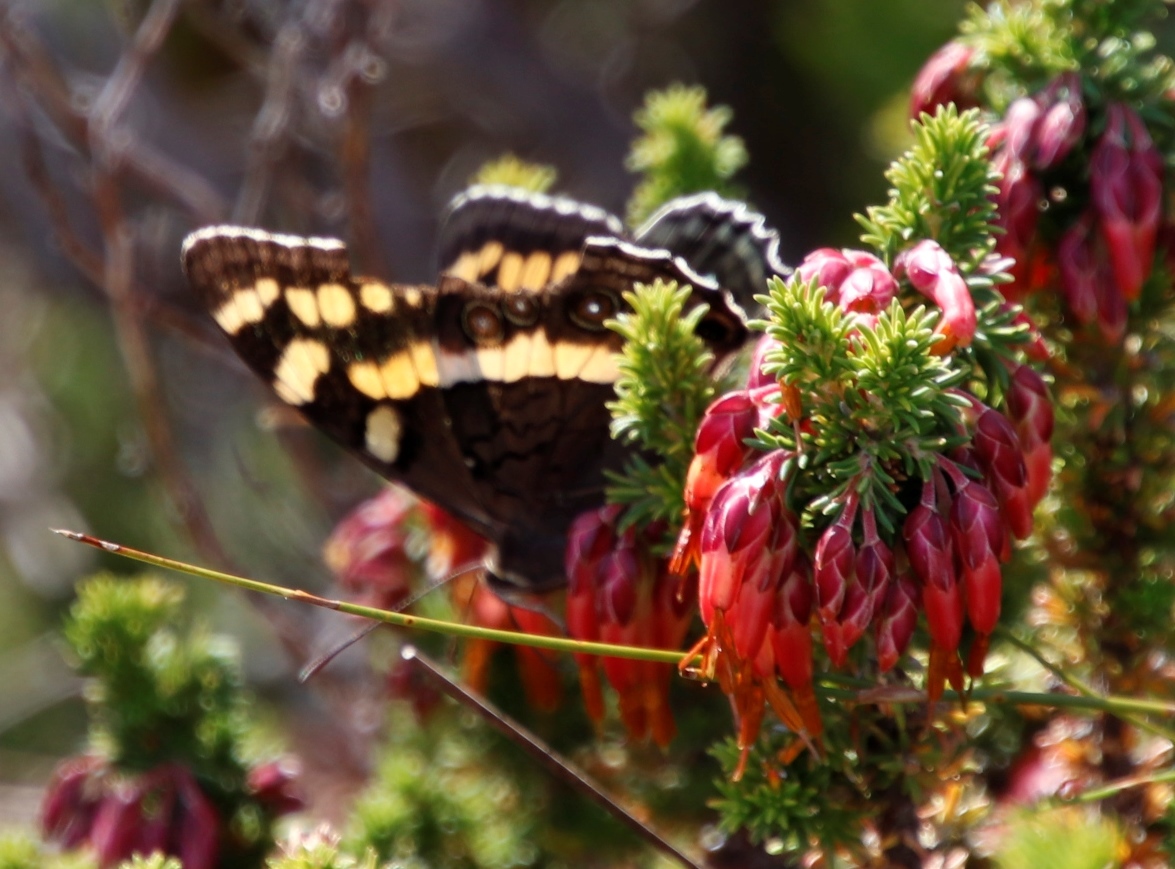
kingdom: Plantae
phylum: Tracheophyta
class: Magnoliopsida
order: Ericales
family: Ericaceae
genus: Erica
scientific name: Erica coccinea
